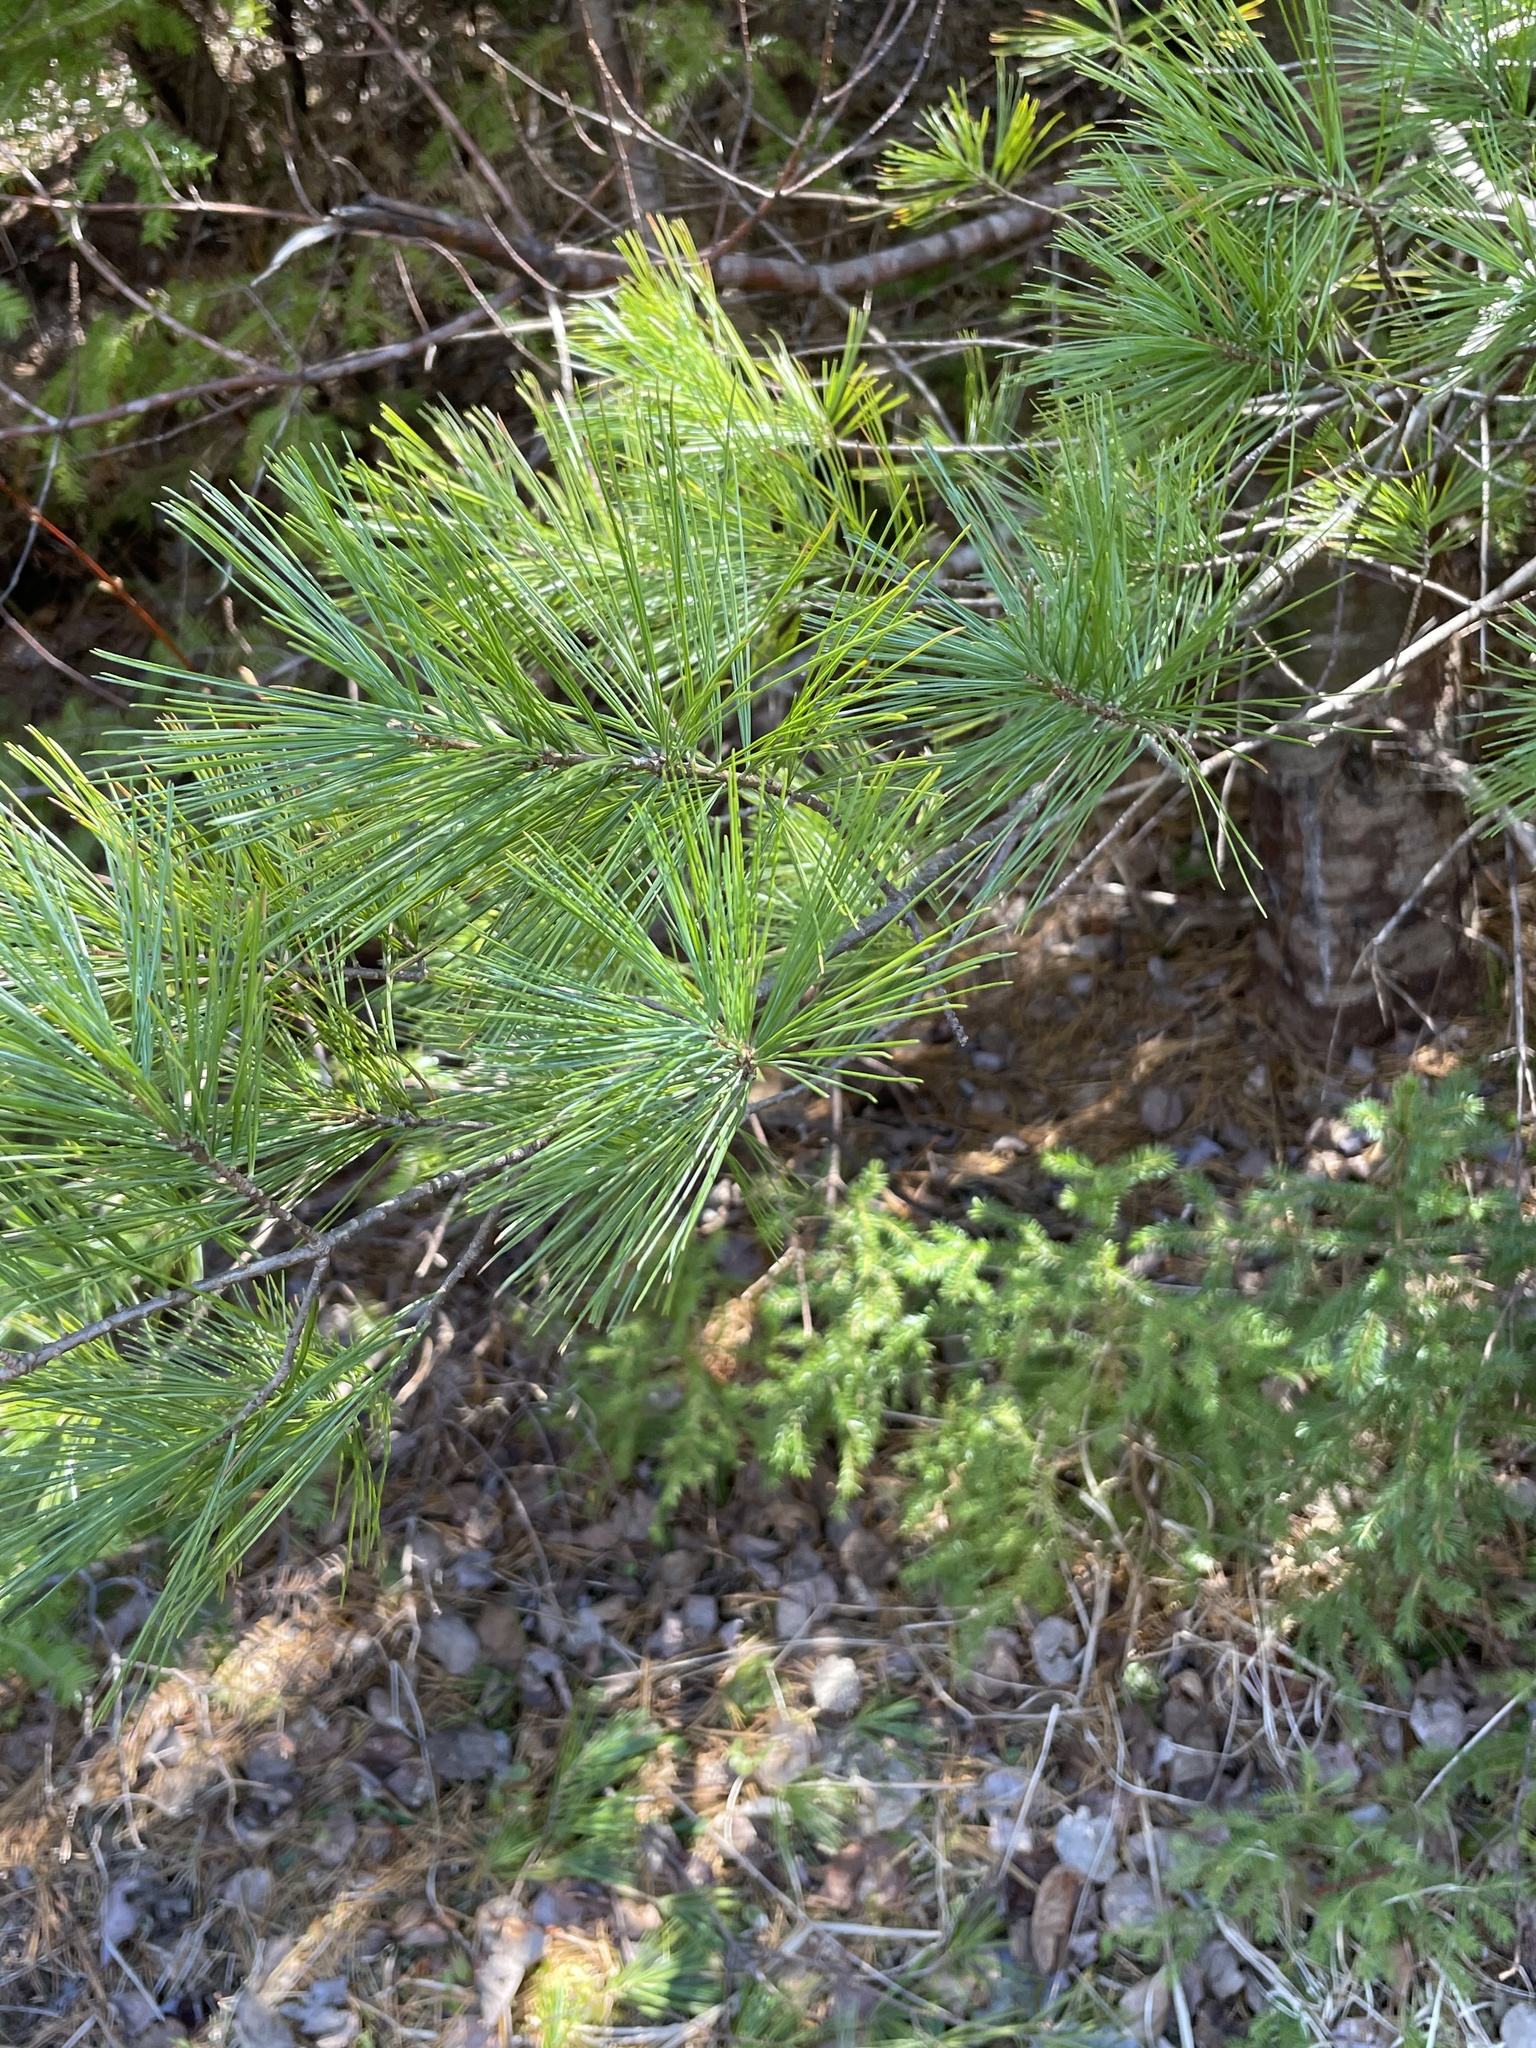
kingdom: Plantae
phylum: Tracheophyta
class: Pinopsida
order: Pinales
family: Pinaceae
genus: Pinus
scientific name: Pinus strobus
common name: Weymouth pine
